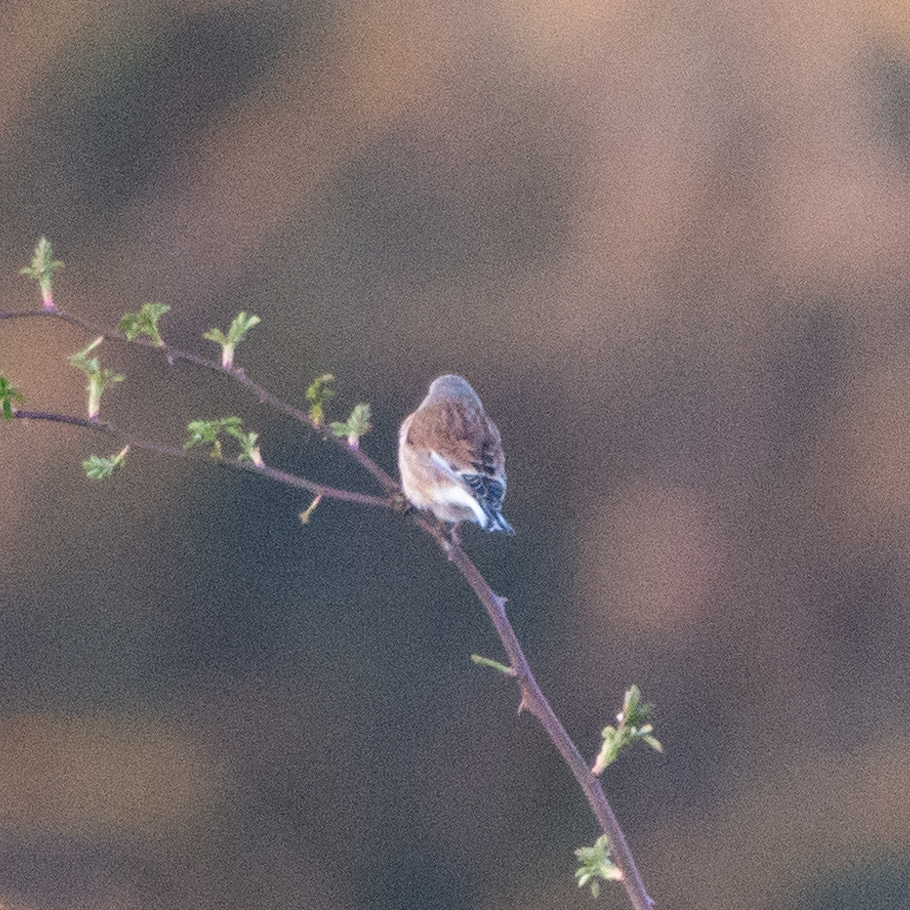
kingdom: Animalia
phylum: Chordata
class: Aves
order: Passeriformes
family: Fringillidae
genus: Linaria
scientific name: Linaria cannabina
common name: Common linnet
